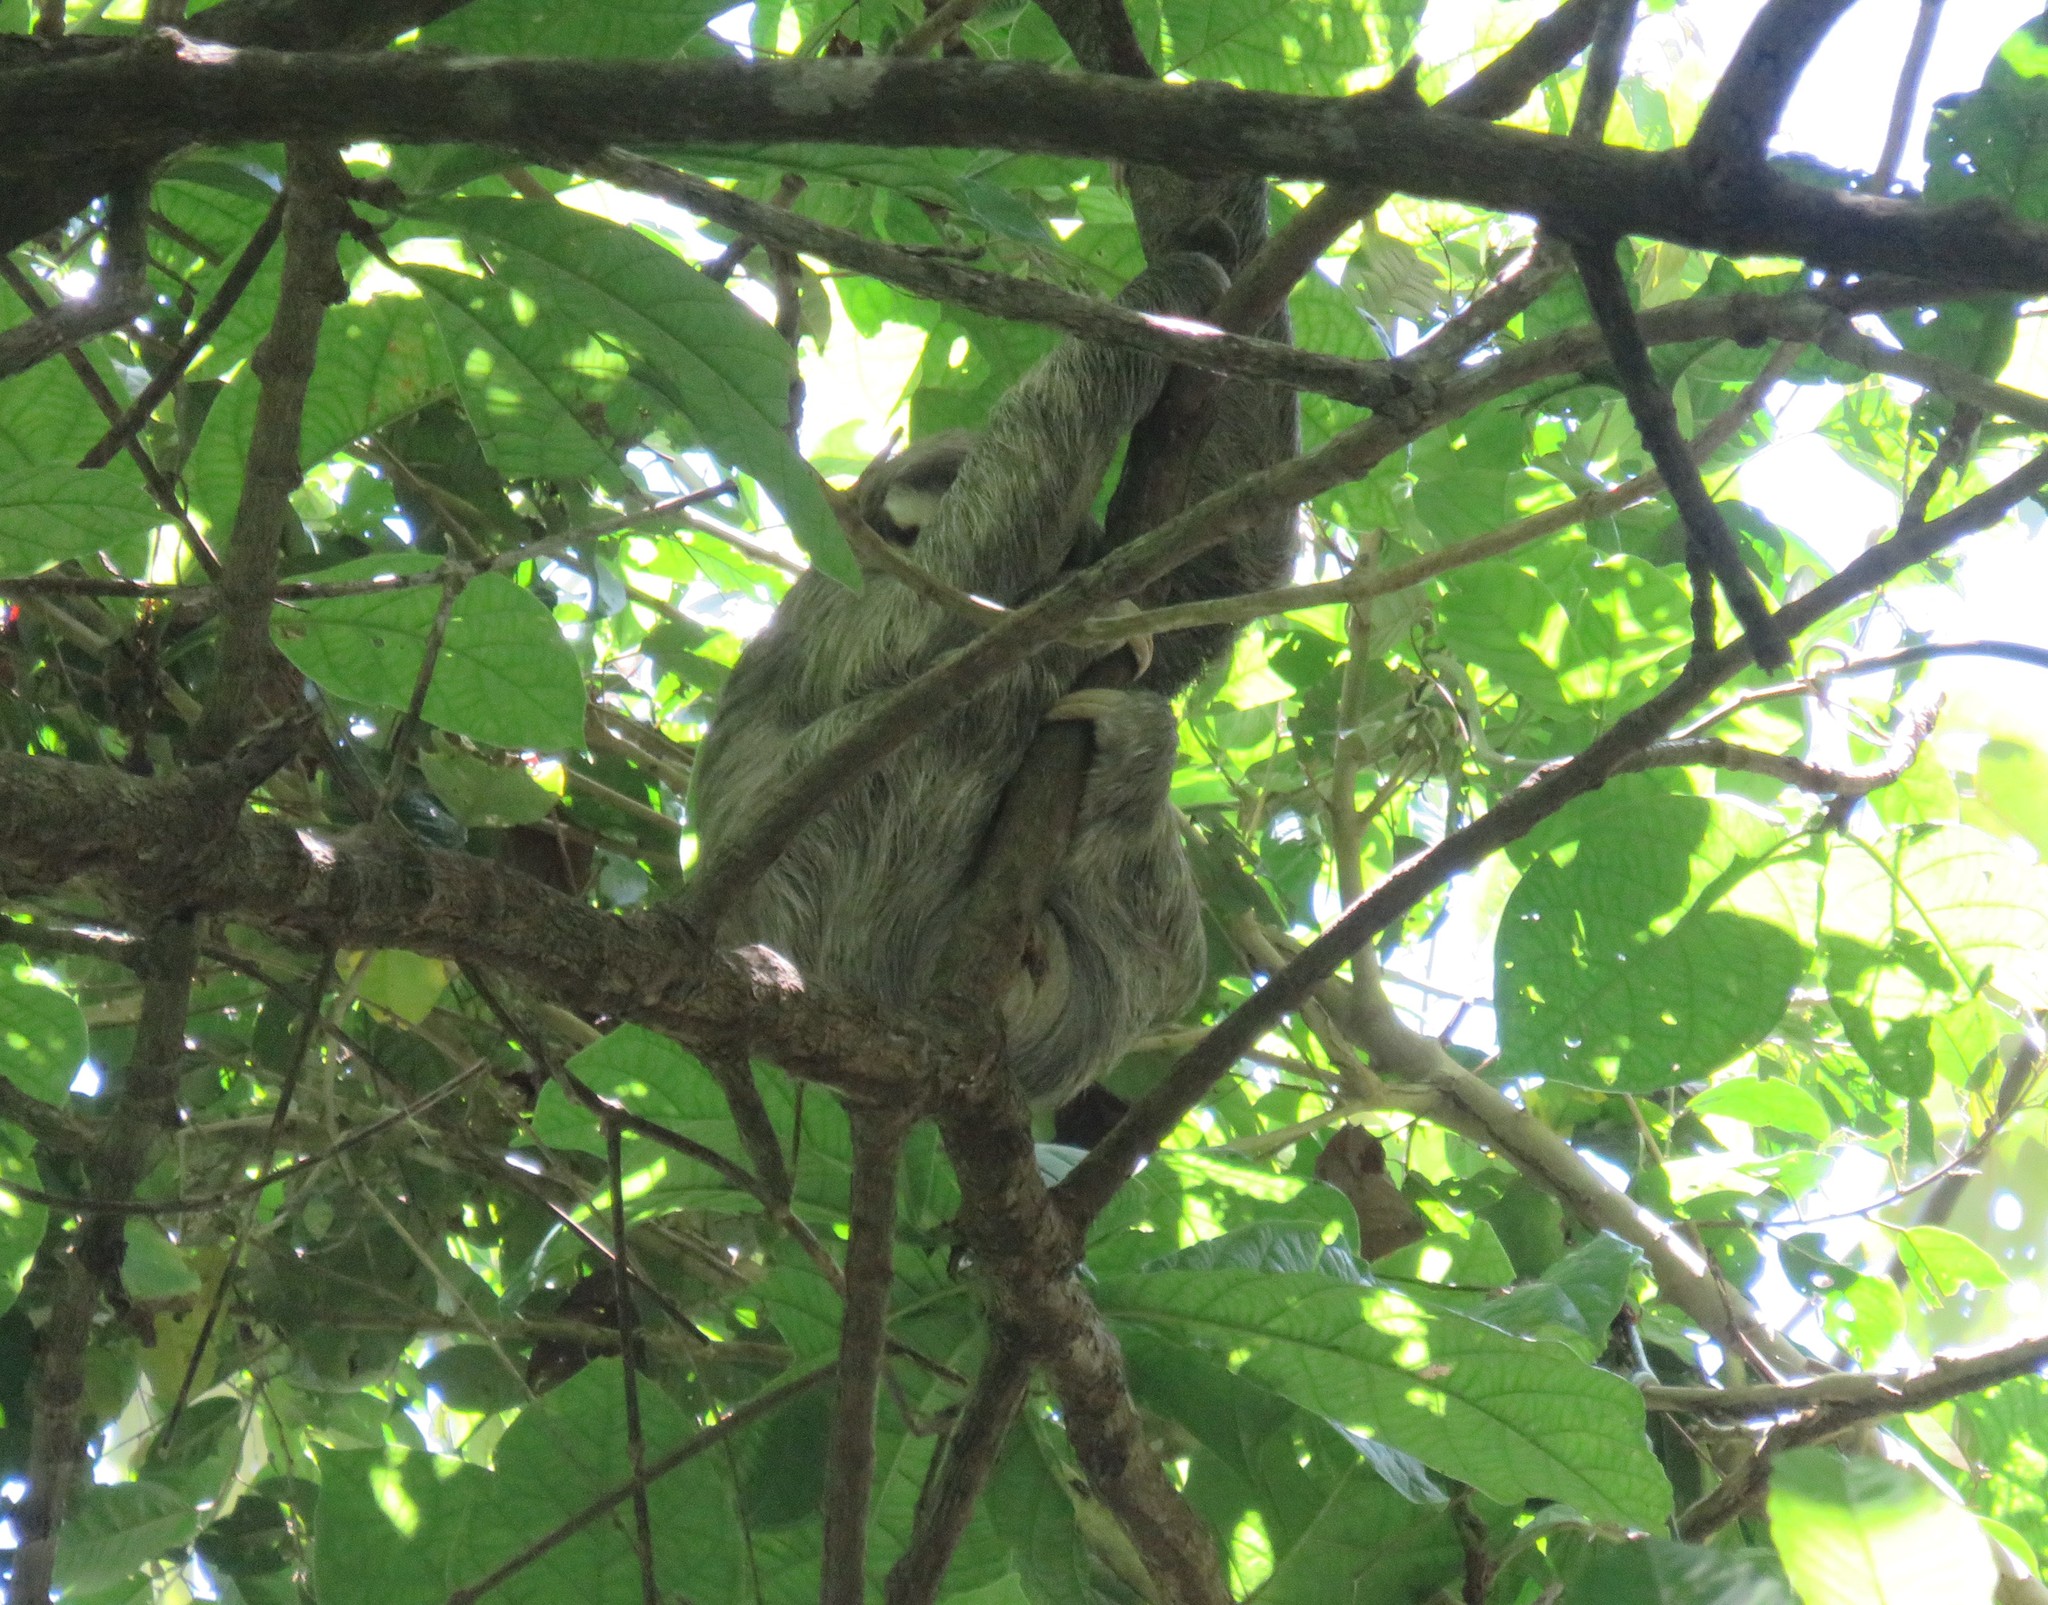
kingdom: Animalia
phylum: Chordata
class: Mammalia
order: Pilosa
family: Bradypodidae
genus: Bradypus
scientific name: Bradypus variegatus
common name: Brown-throated three-toed sloth
